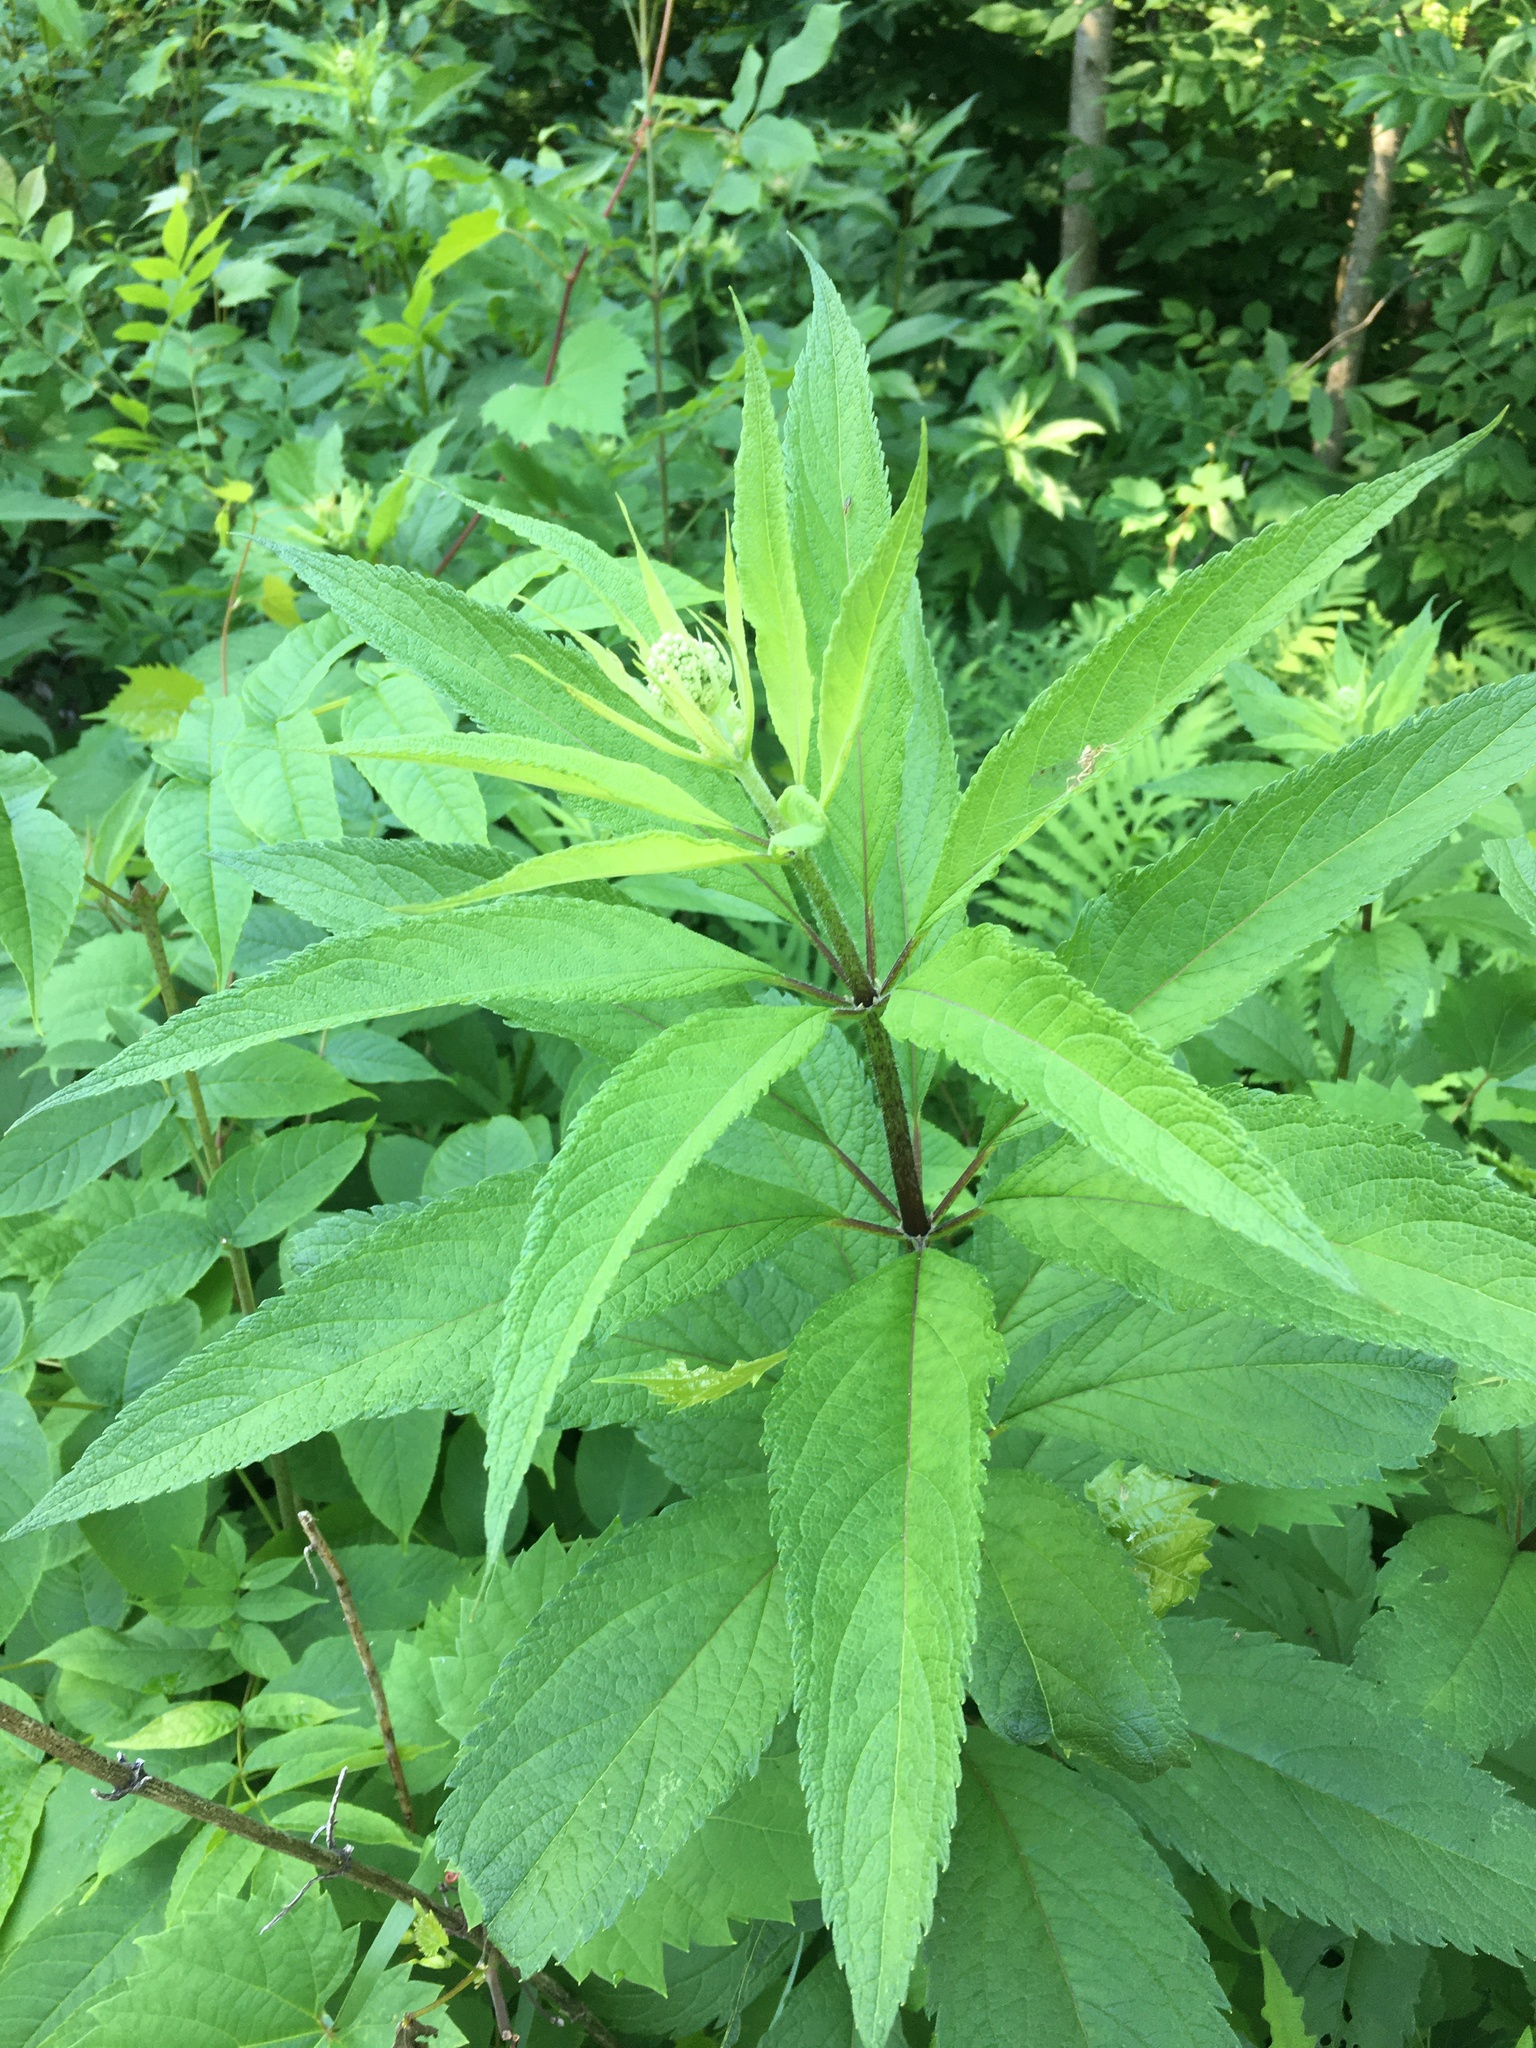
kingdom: Plantae
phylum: Tracheophyta
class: Magnoliopsida
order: Asterales
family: Asteraceae
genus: Eutrochium
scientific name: Eutrochium maculatum
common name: Spotted joe pye weed
